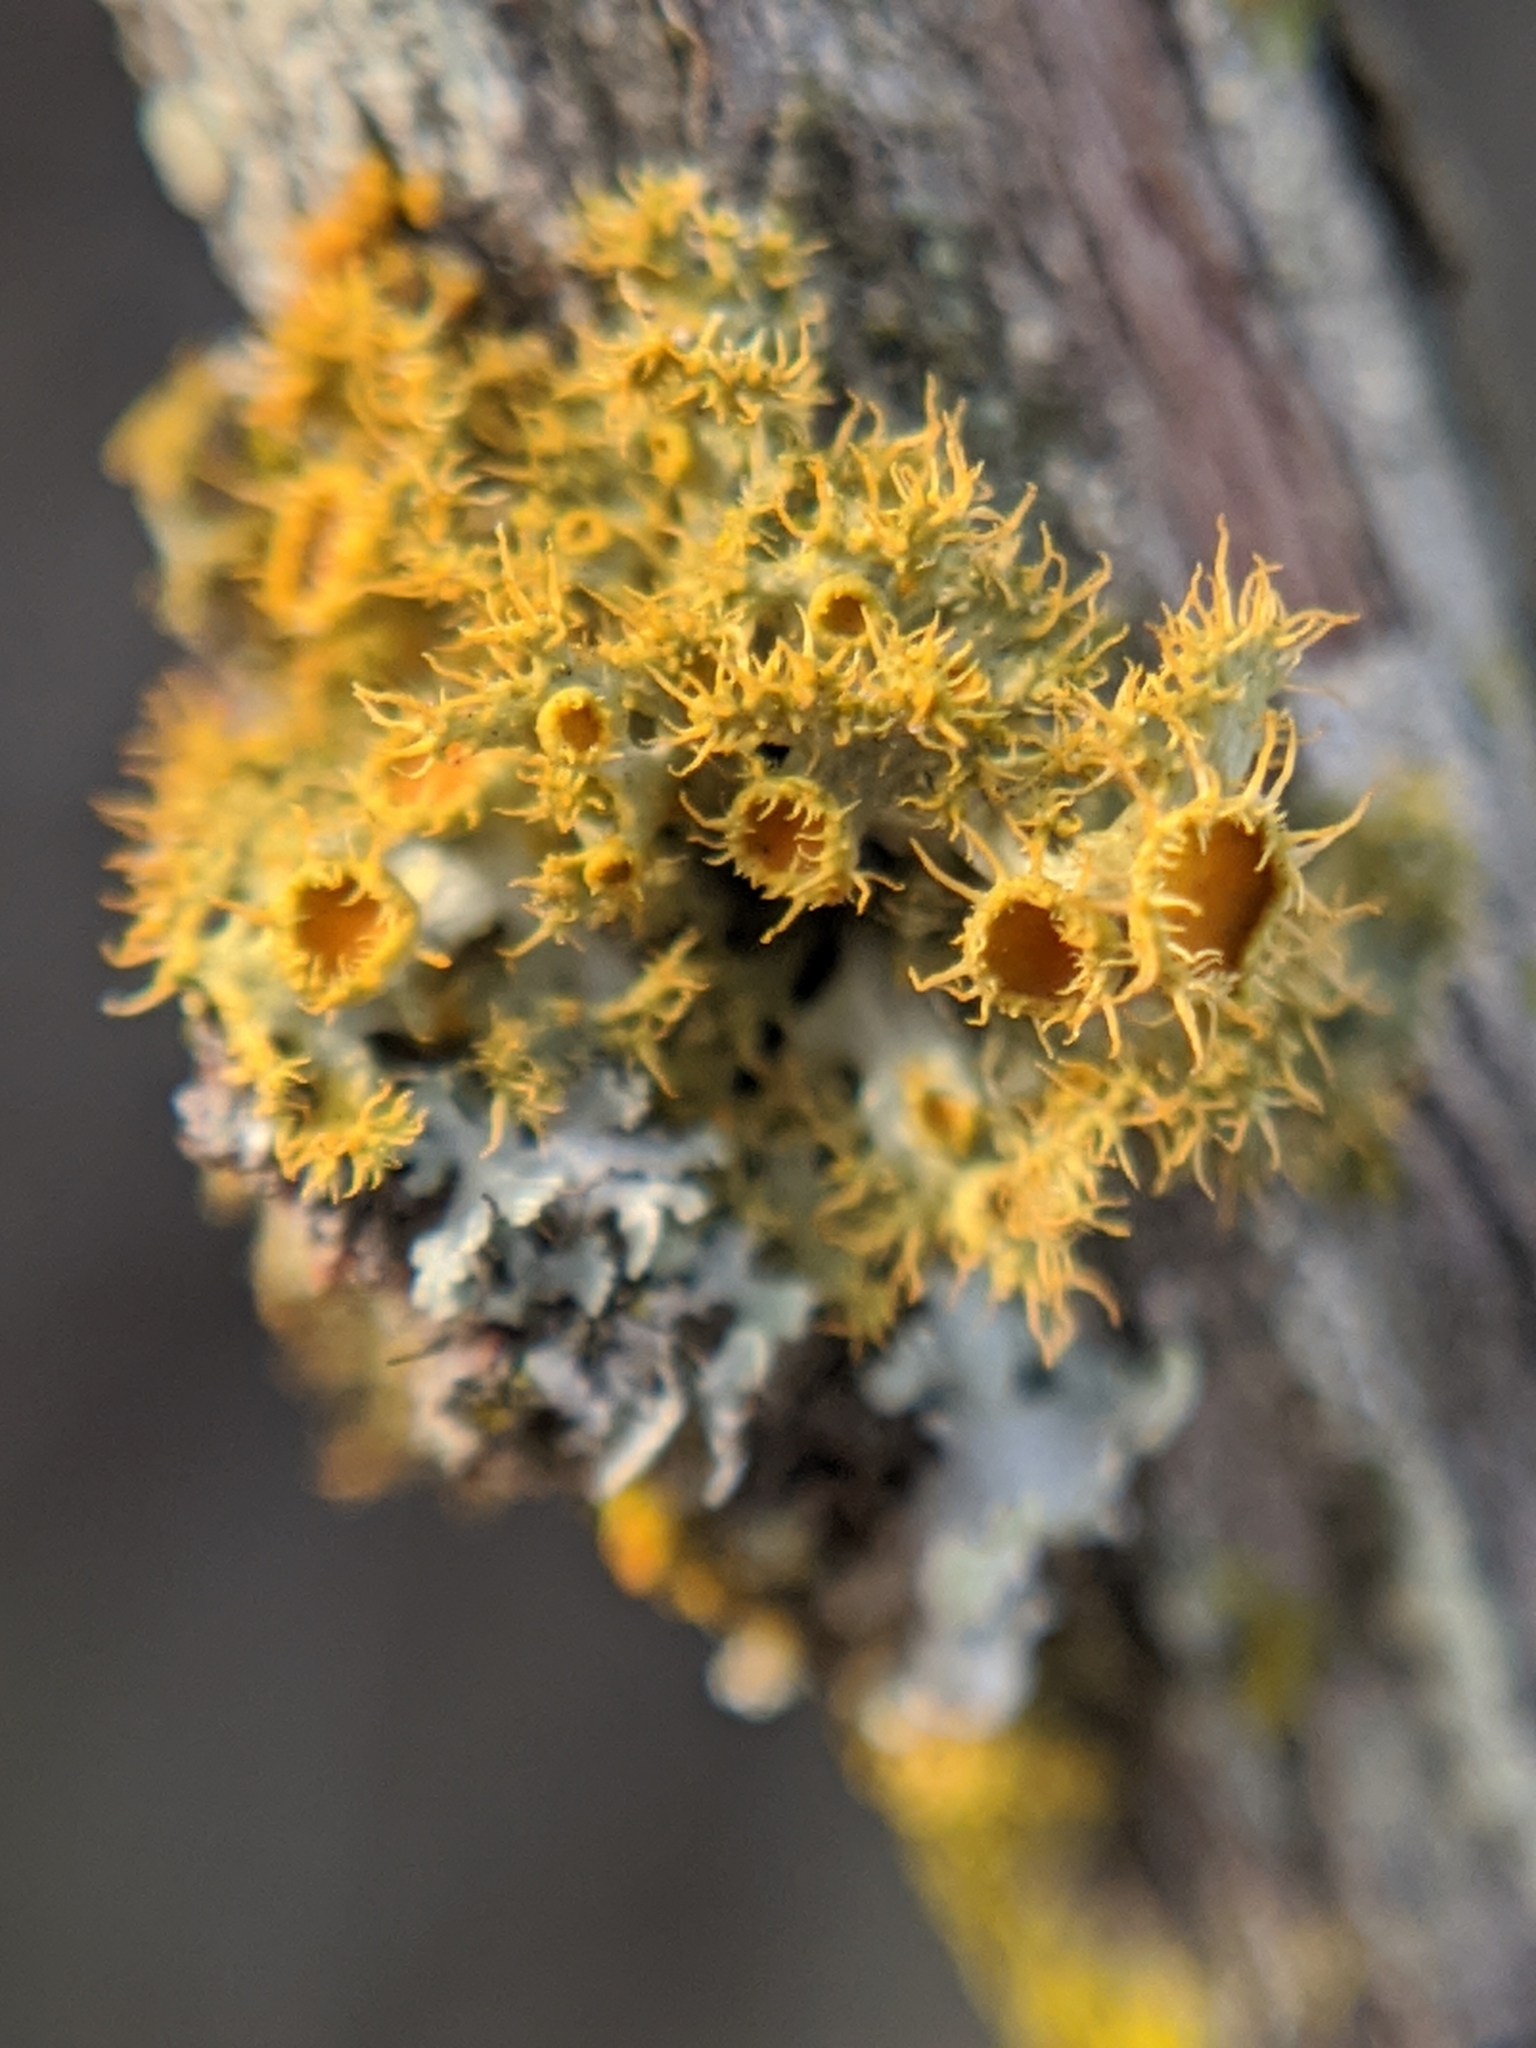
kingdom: Fungi
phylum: Ascomycota
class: Lecanoromycetes
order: Teloschistales
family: Teloschistaceae
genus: Niorma
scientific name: Niorma chrysophthalma
